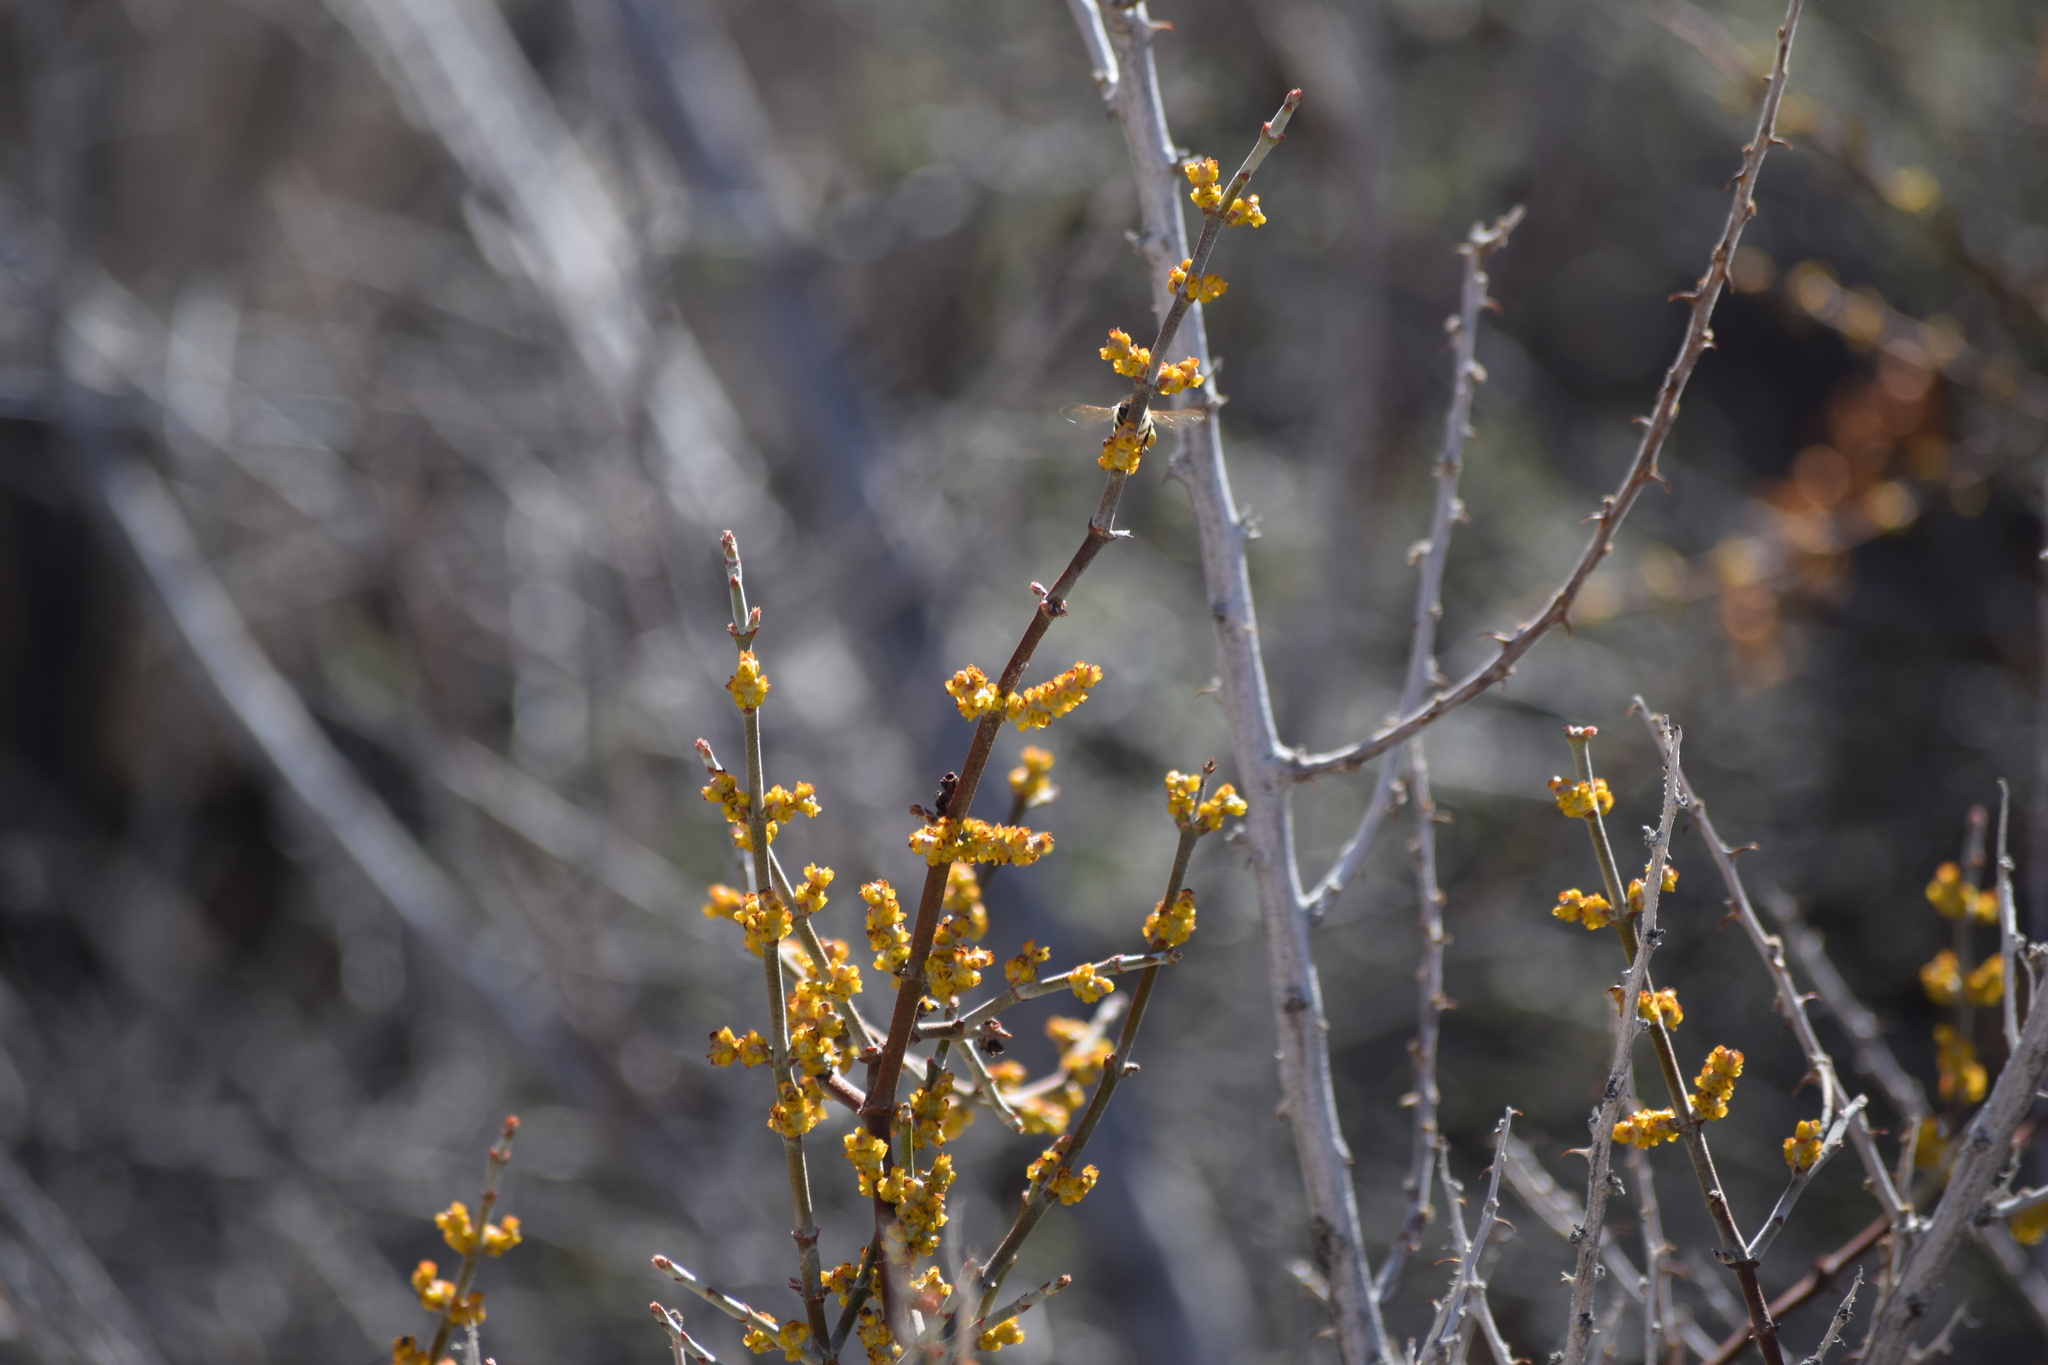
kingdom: Plantae
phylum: Tracheophyta
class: Magnoliopsida
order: Santalales
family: Viscaceae
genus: Phoradendron
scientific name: Phoradendron californicum
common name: Acacia mistletoe
